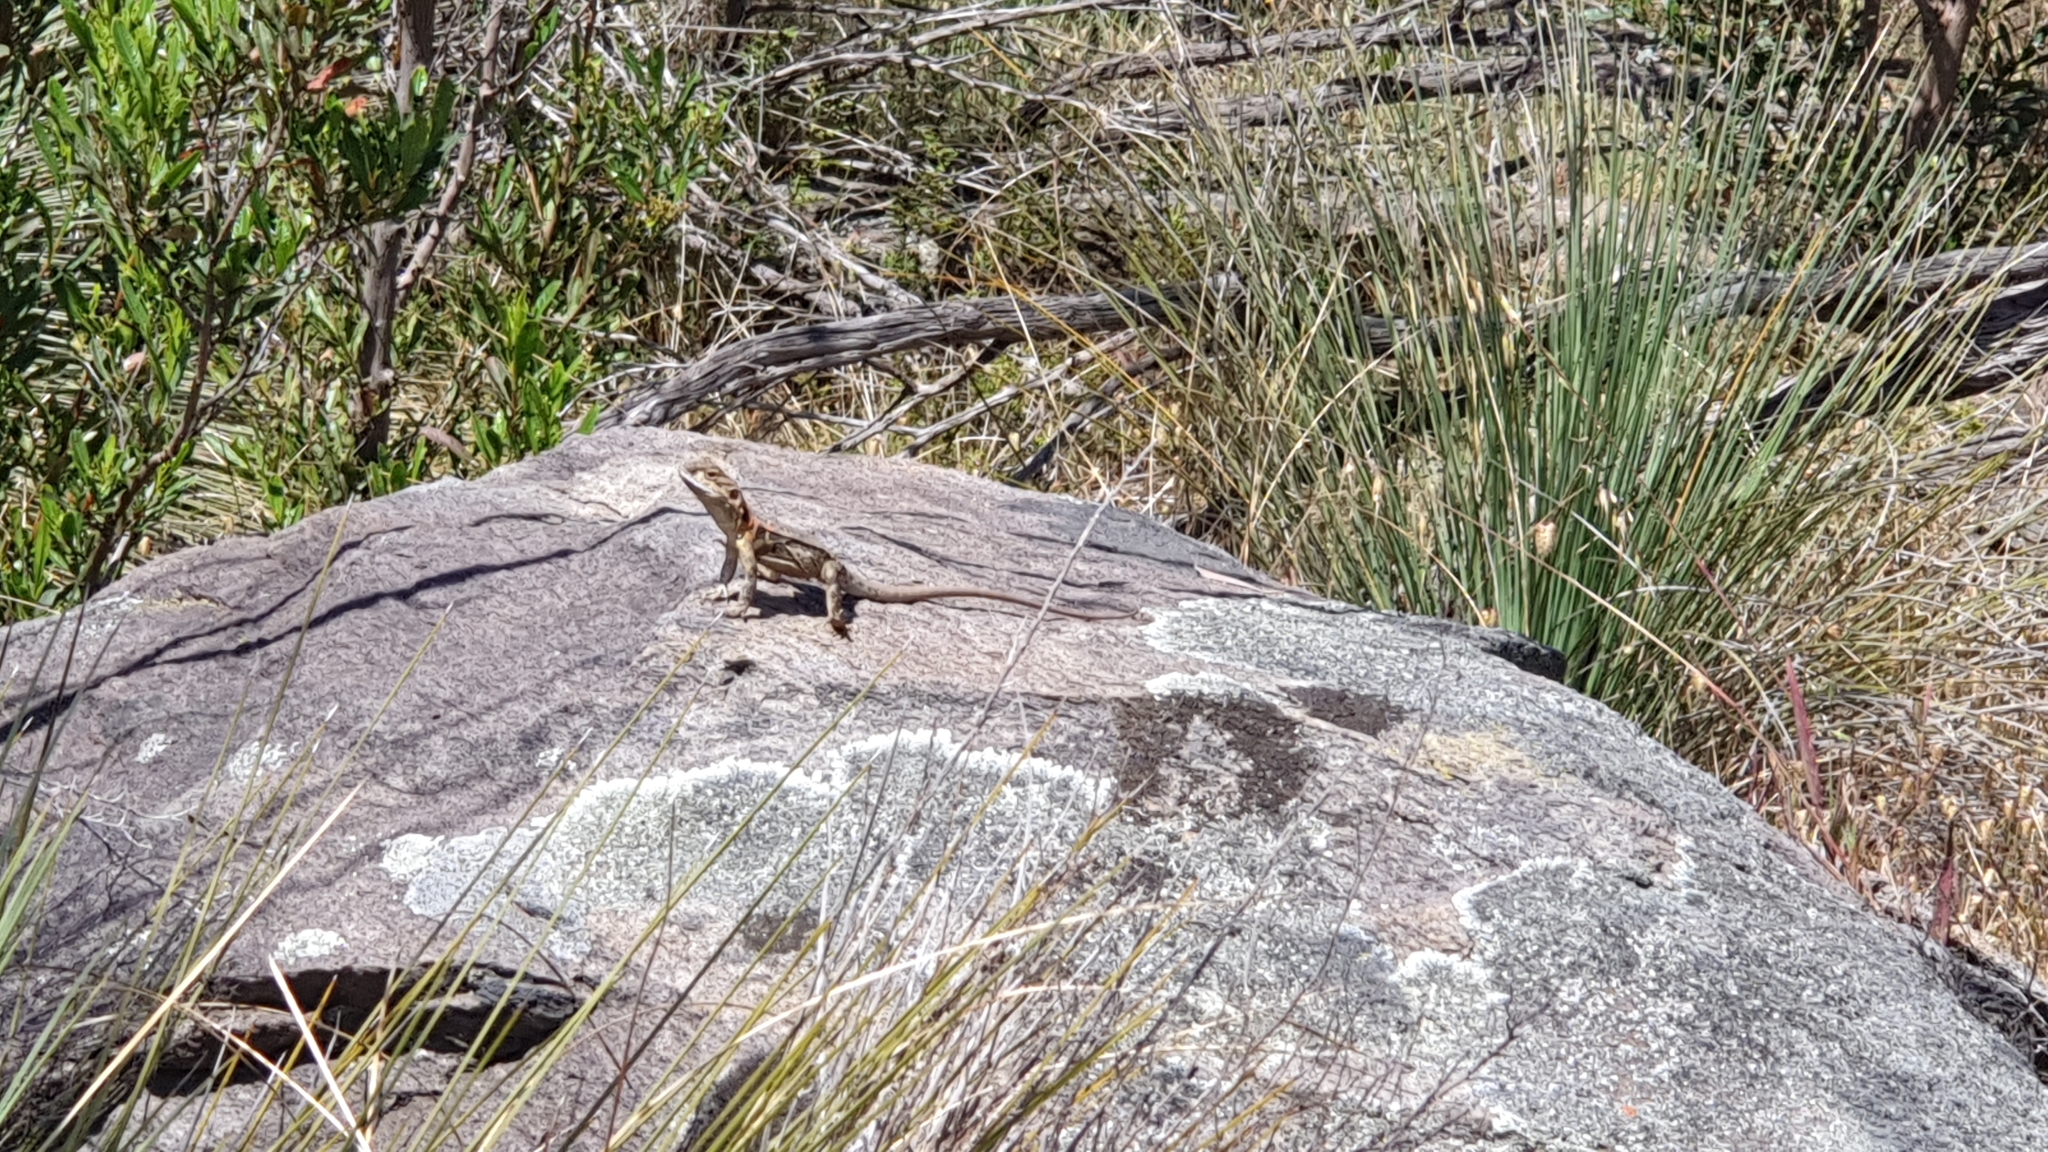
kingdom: Animalia
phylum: Chordata
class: Squamata
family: Agamidae
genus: Ctenophorus
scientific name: Ctenophorus decresii
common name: Tawny dragon
